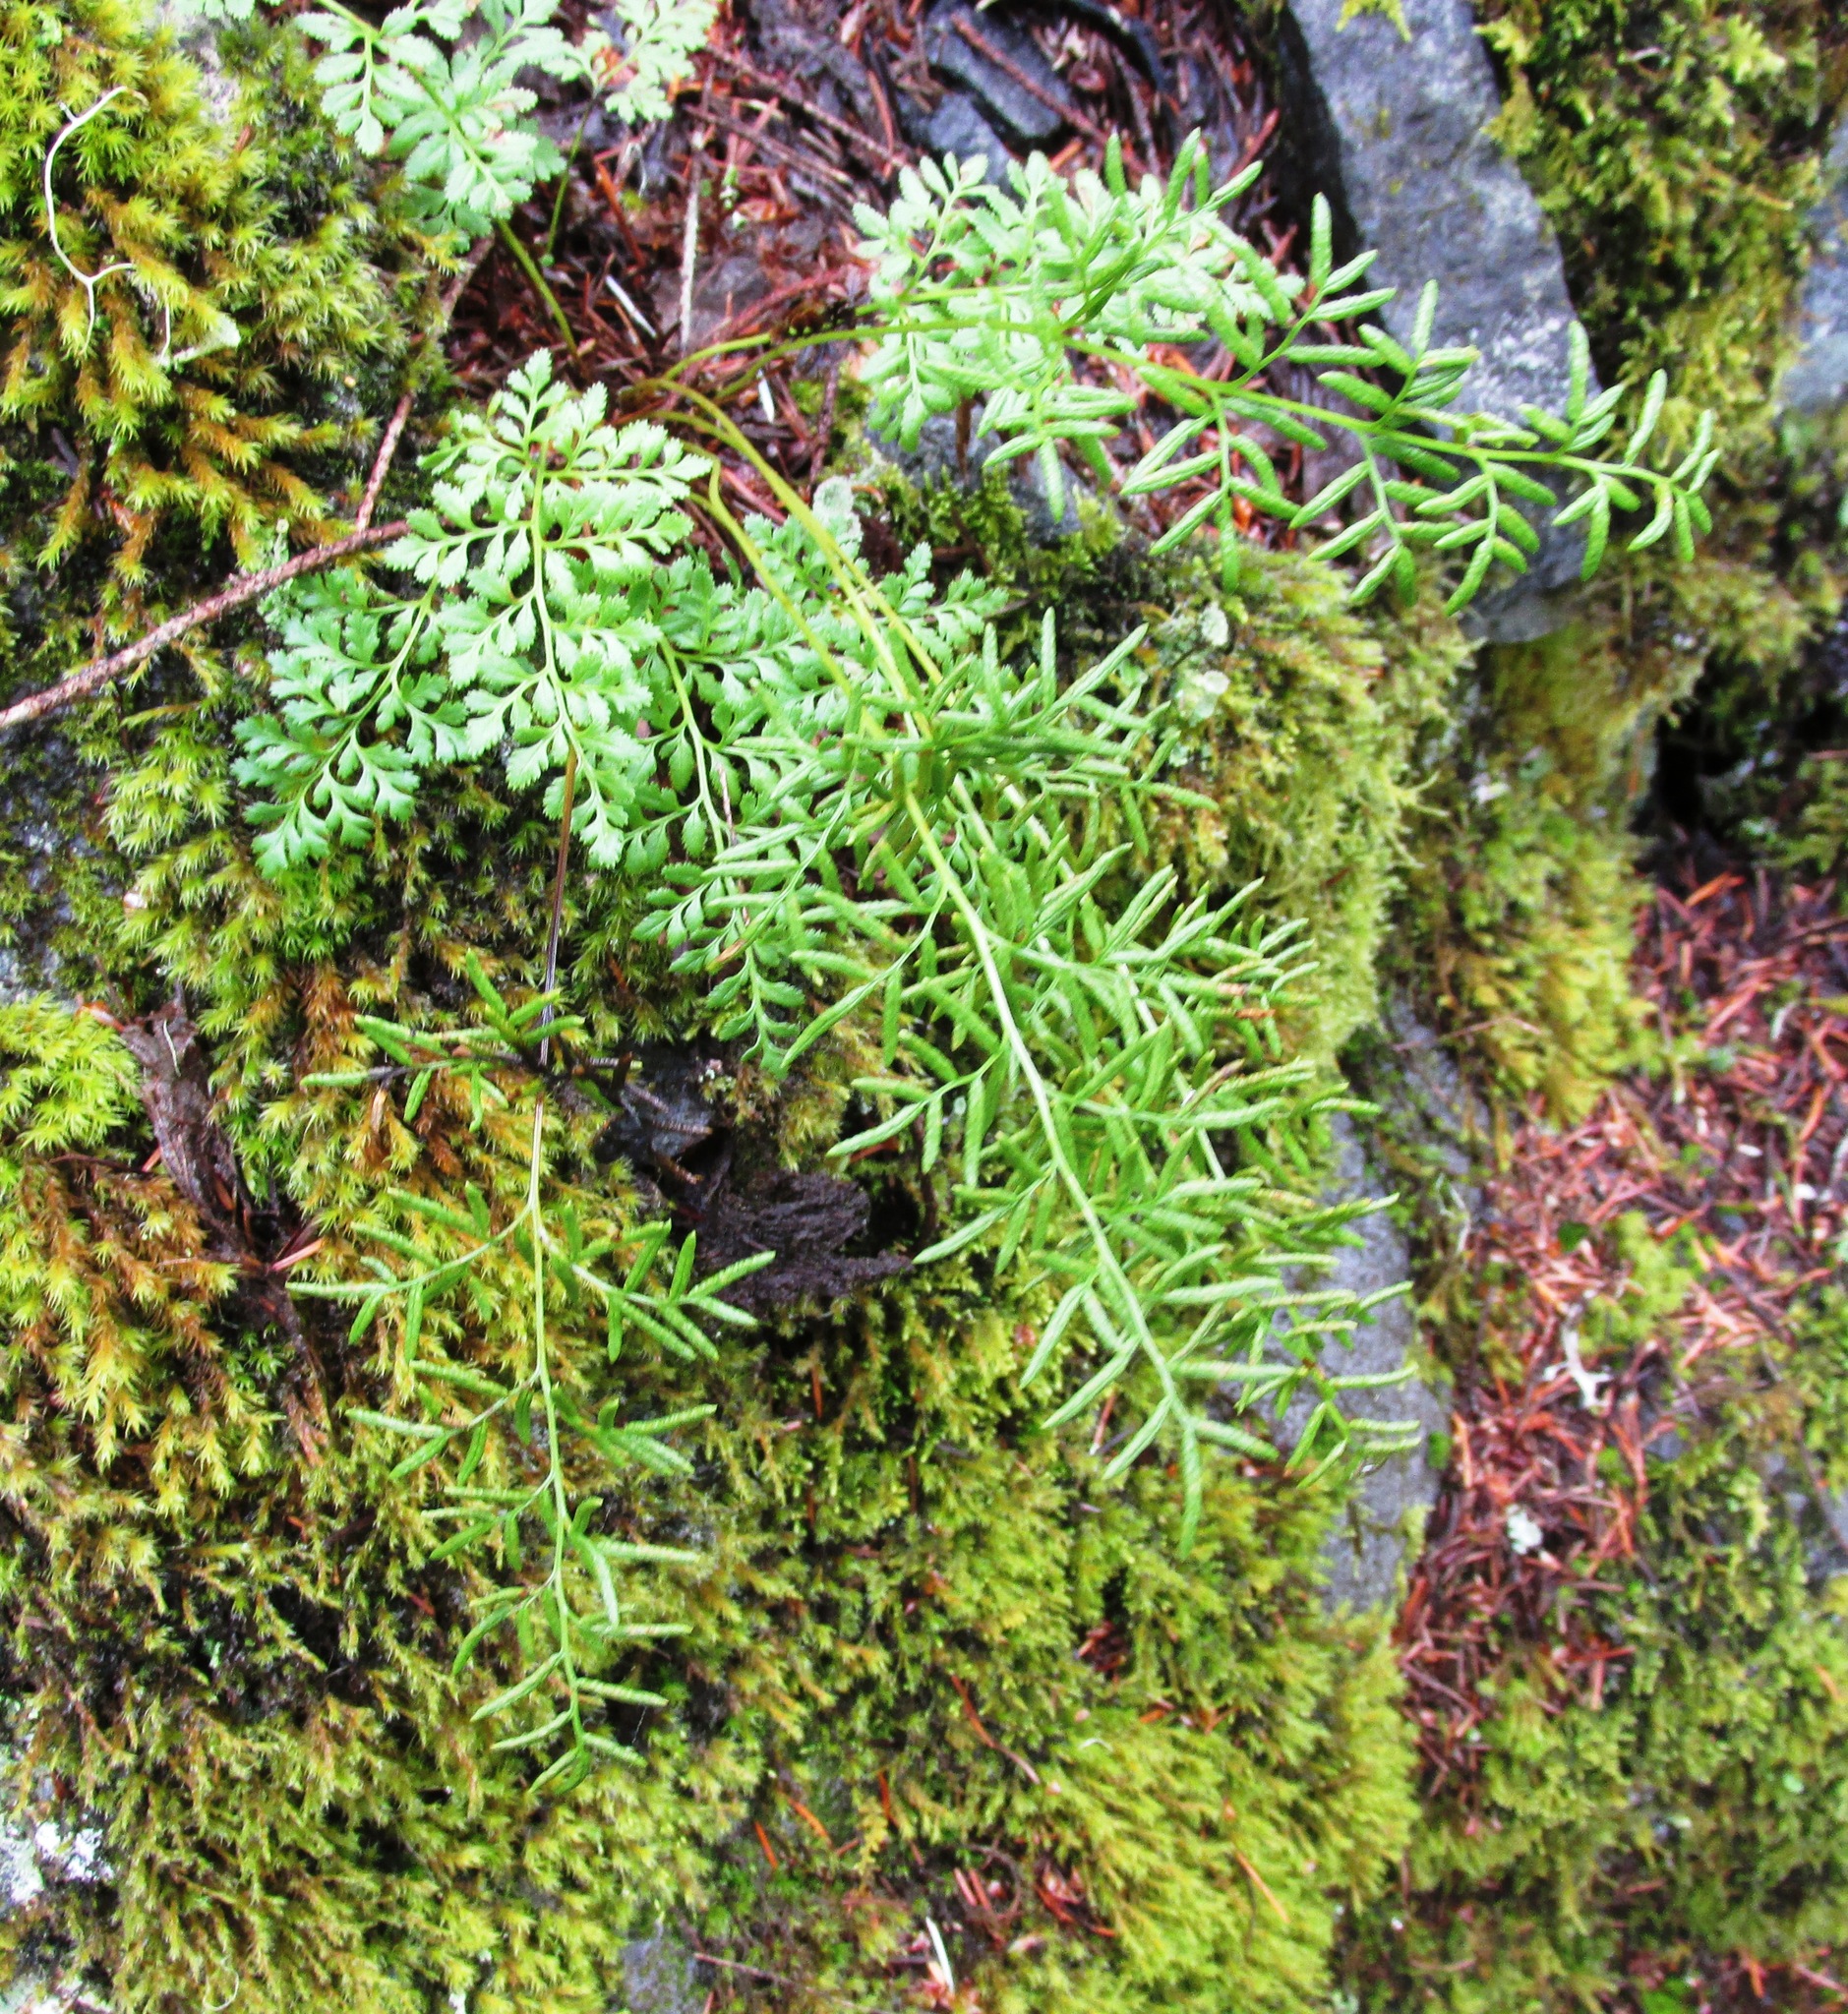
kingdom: Plantae
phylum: Tracheophyta
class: Polypodiopsida
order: Polypodiales
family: Pteridaceae
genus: Cryptogramma
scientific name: Cryptogramma acrostichoides
